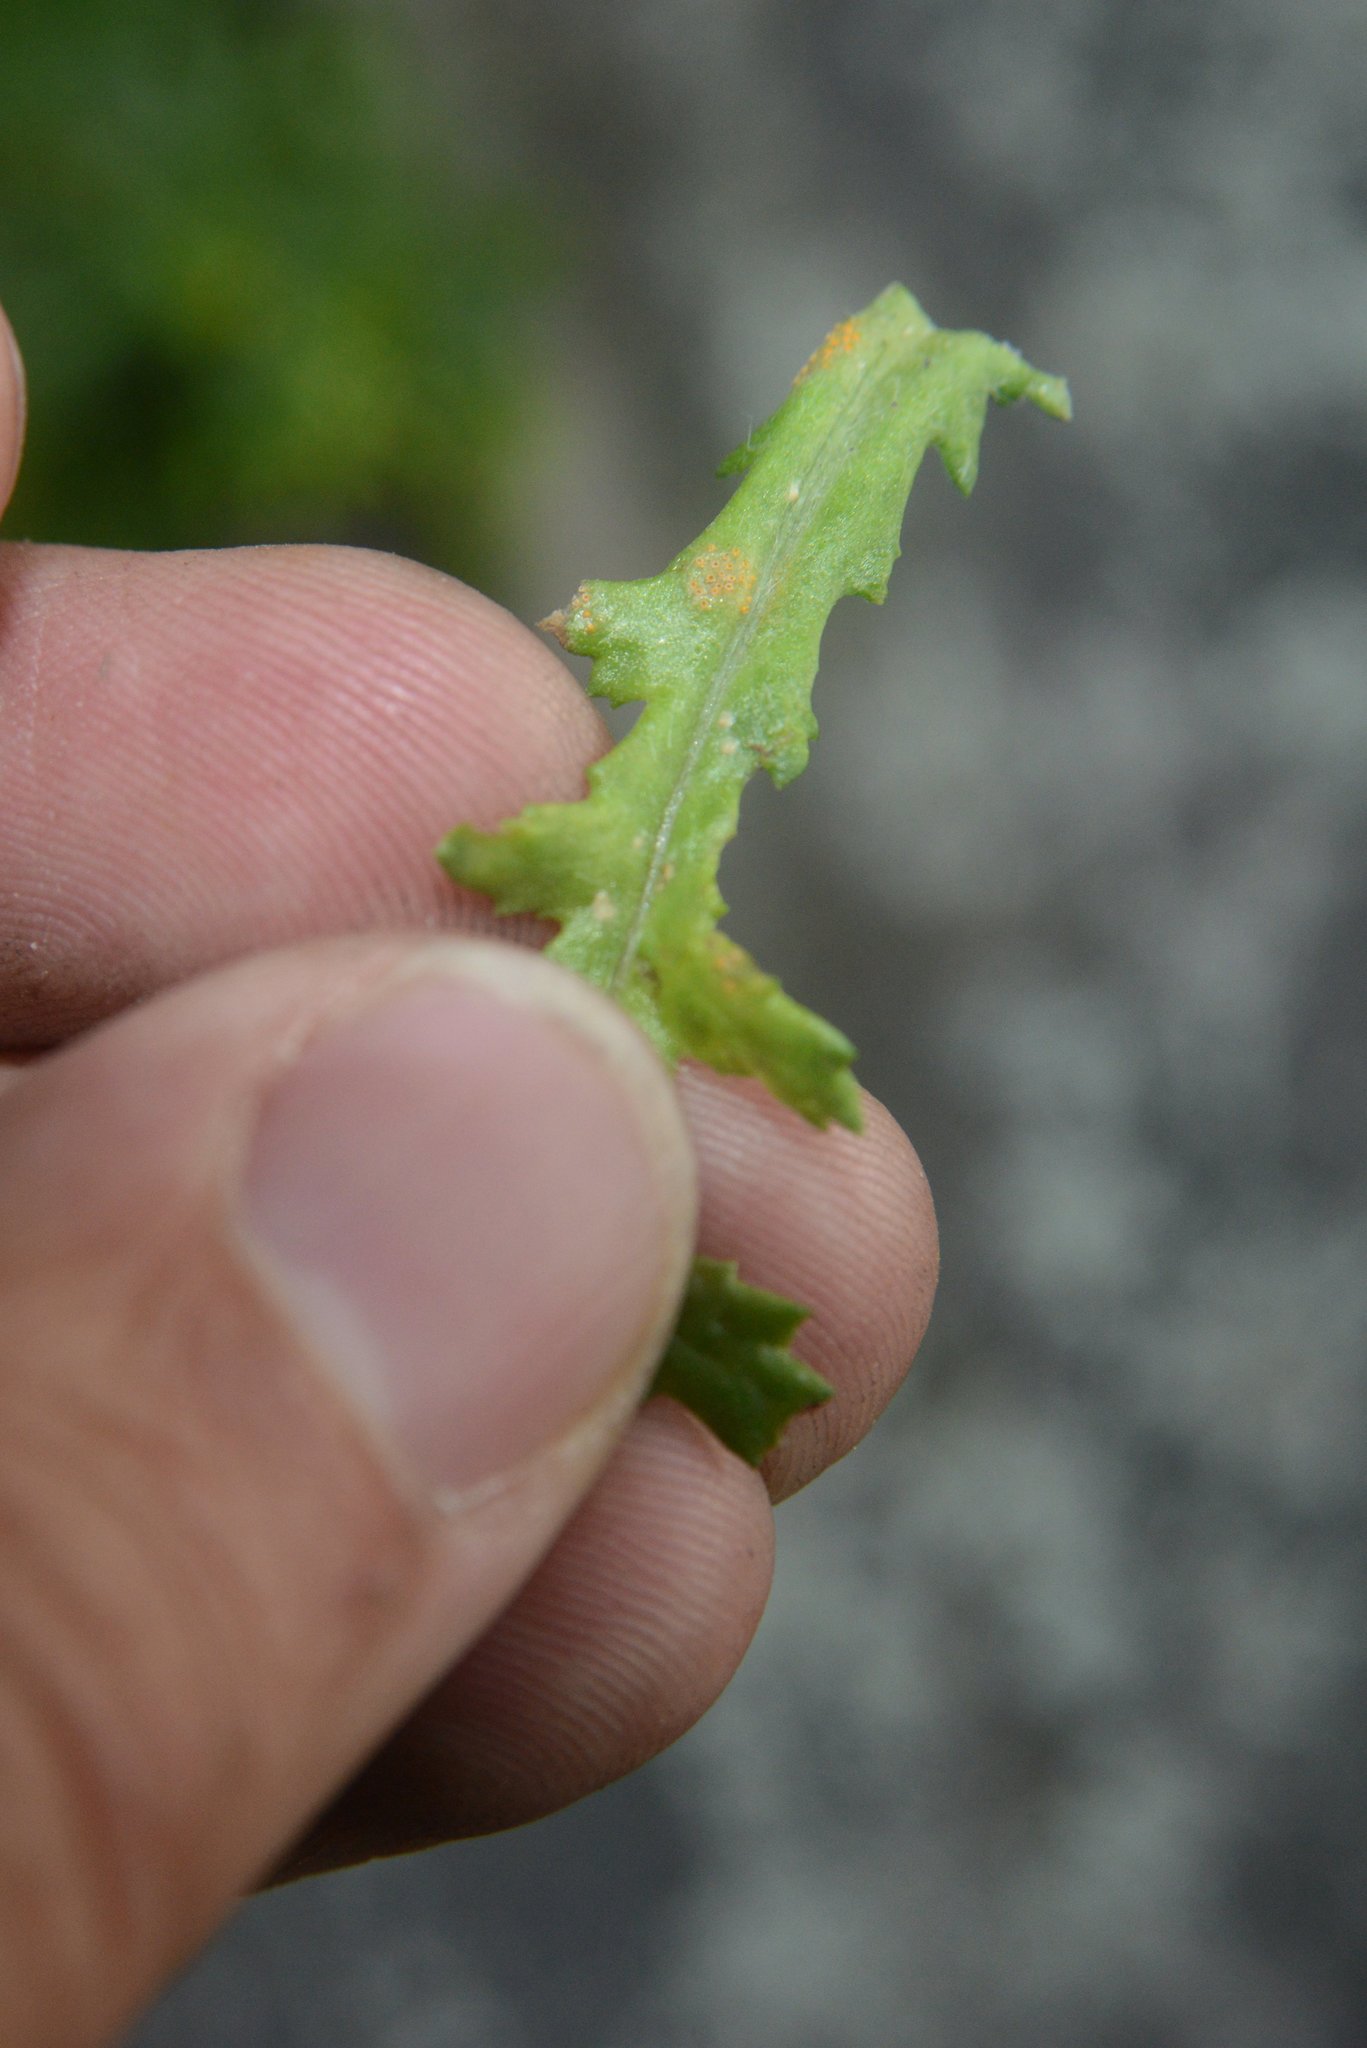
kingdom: Fungi
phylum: Basidiomycota
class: Pucciniomycetes
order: Pucciniales
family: Pucciniaceae
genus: Puccinia
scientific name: Puccinia lagenophorae
